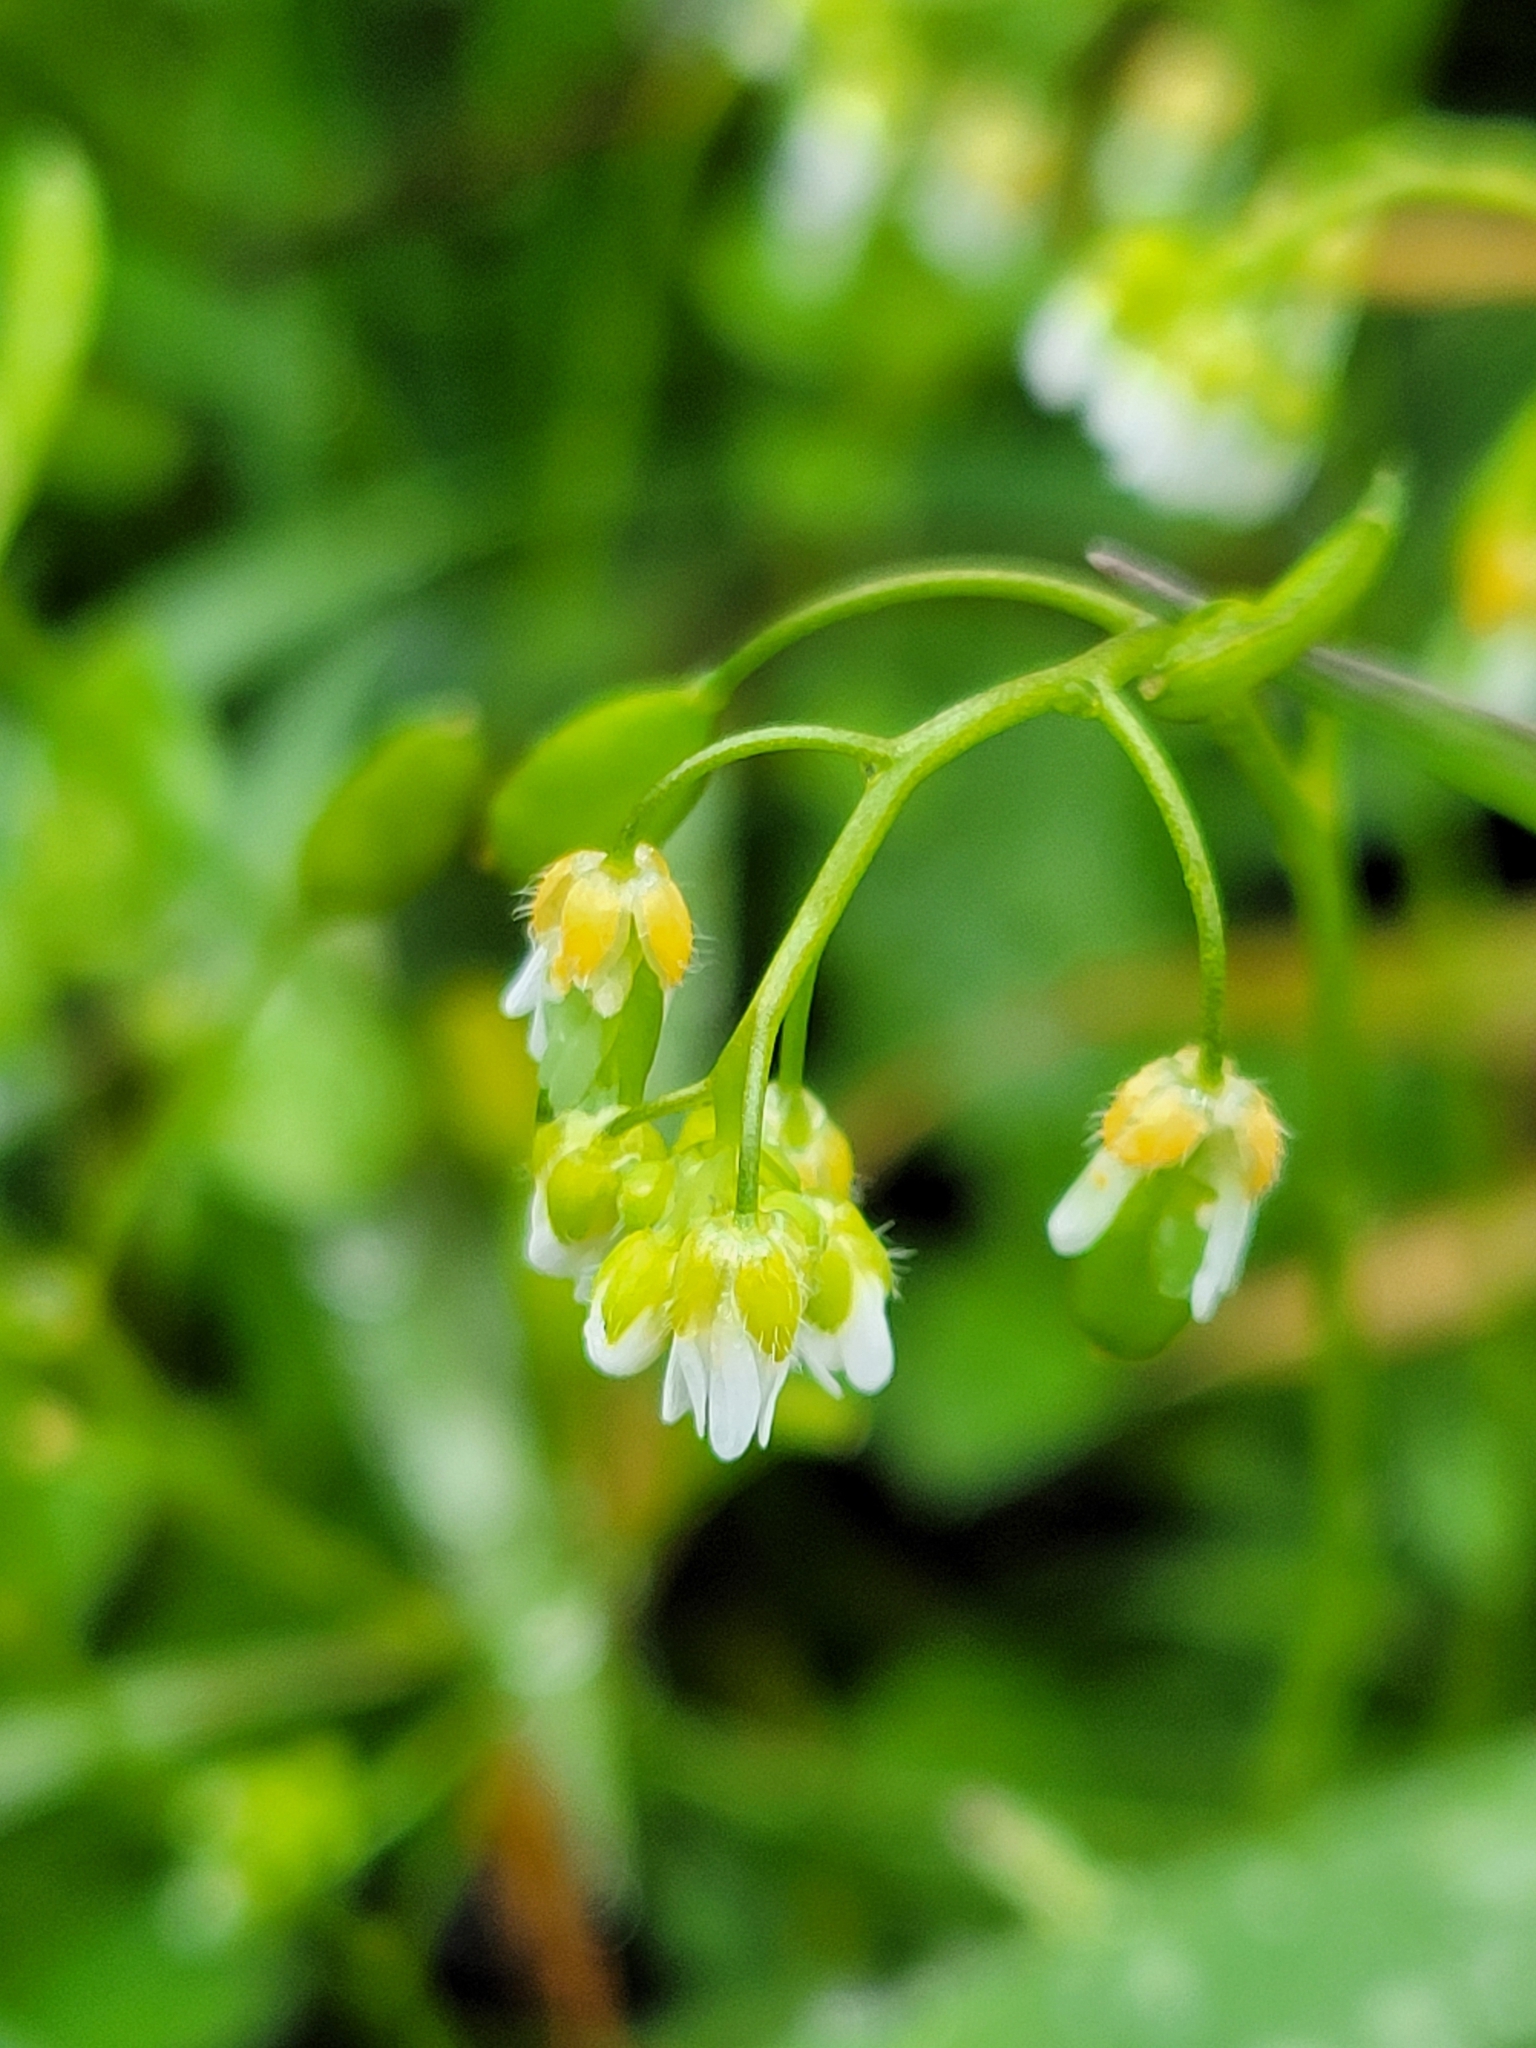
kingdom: Plantae
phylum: Tracheophyta
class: Magnoliopsida
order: Brassicales
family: Brassicaceae
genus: Draba
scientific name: Draba verna
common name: Spring draba
